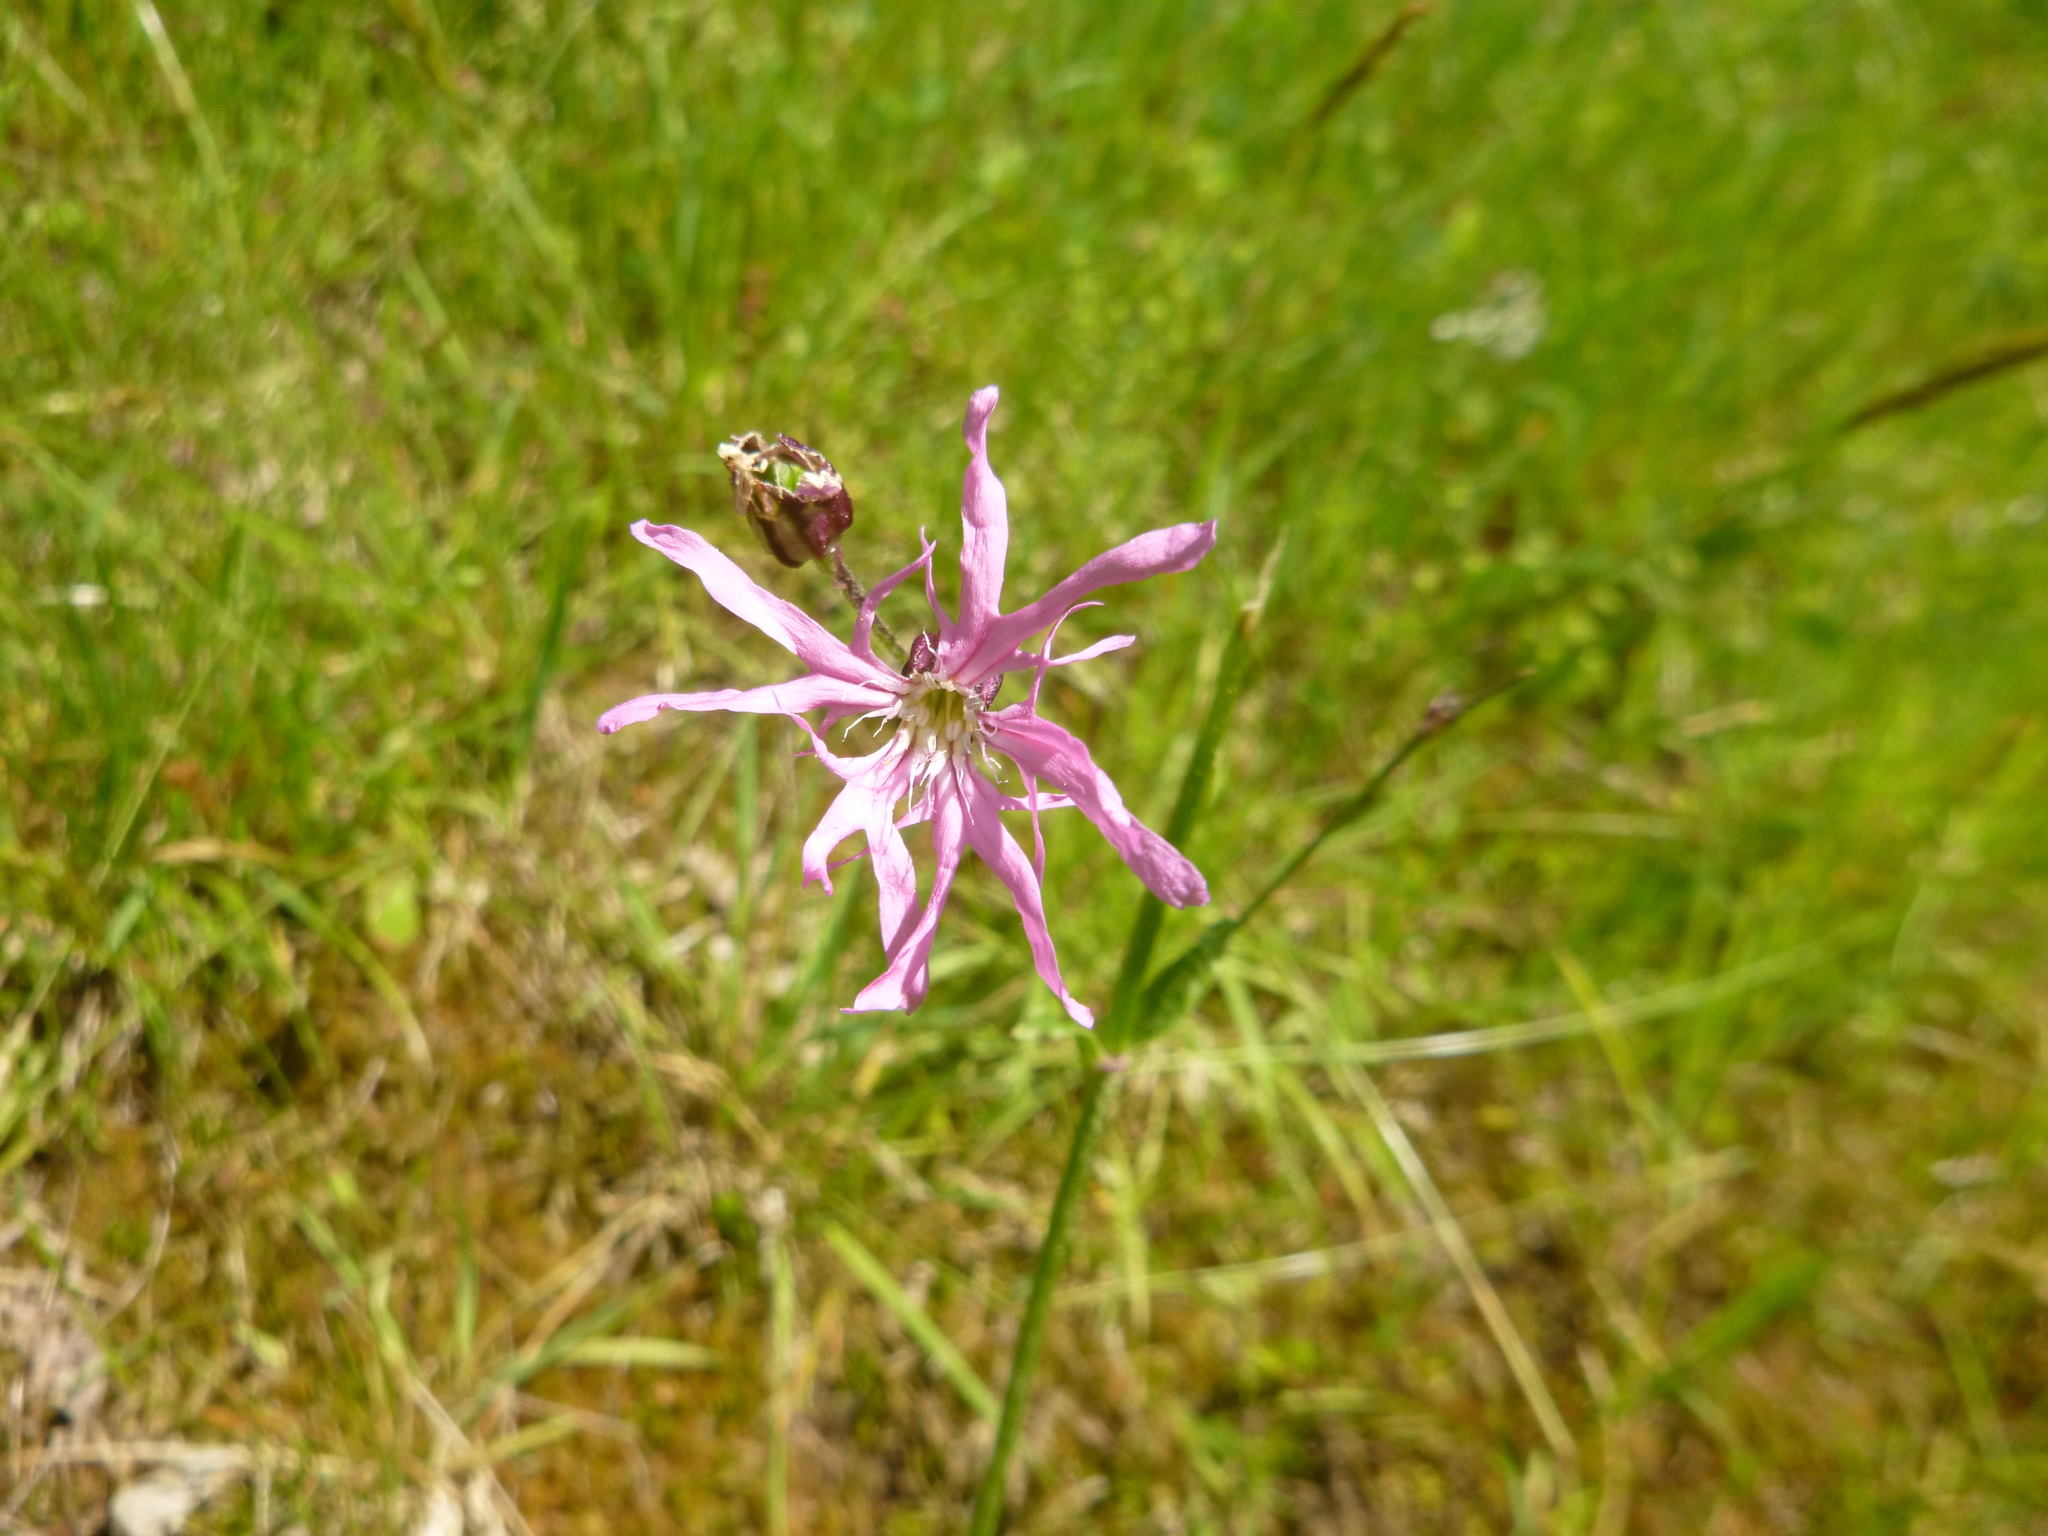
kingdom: Plantae
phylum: Tracheophyta
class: Magnoliopsida
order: Caryophyllales
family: Caryophyllaceae
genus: Silene
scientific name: Silene flos-cuculi
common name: Ragged-robin
